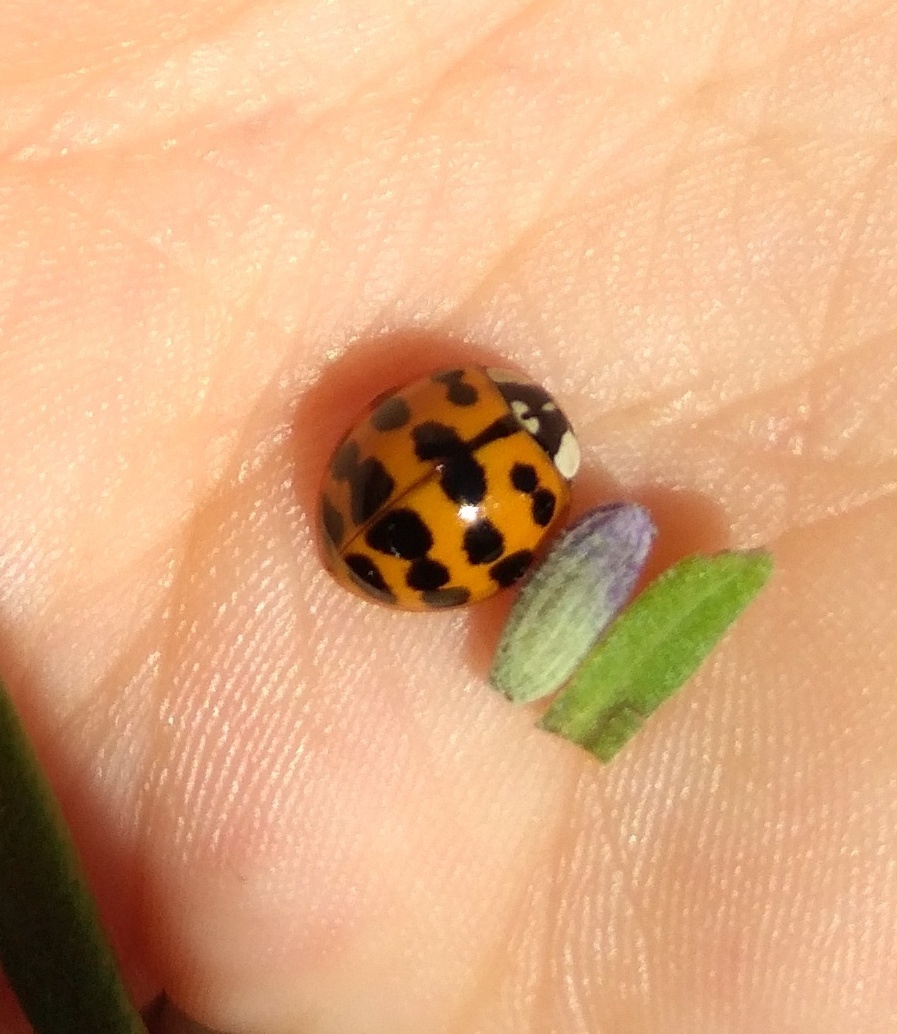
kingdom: Animalia
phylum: Arthropoda
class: Insecta
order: Coleoptera
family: Coccinellidae
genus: Harmonia
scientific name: Harmonia axyridis
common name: Harlequin ladybird
